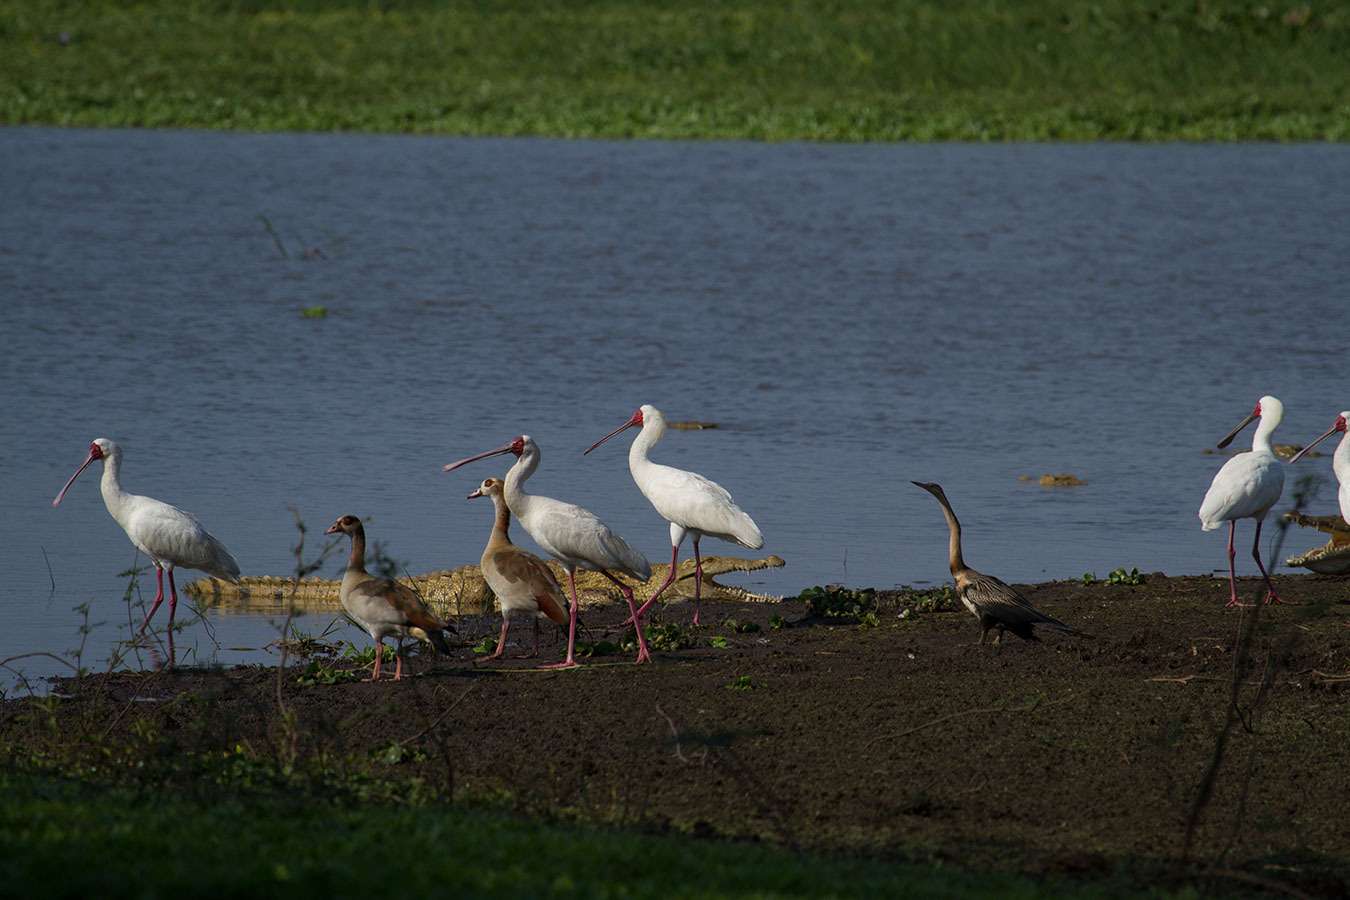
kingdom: Animalia
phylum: Chordata
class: Crocodylia
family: Crocodylidae
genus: Crocodylus
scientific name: Crocodylus niloticus
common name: Nile crocodile
